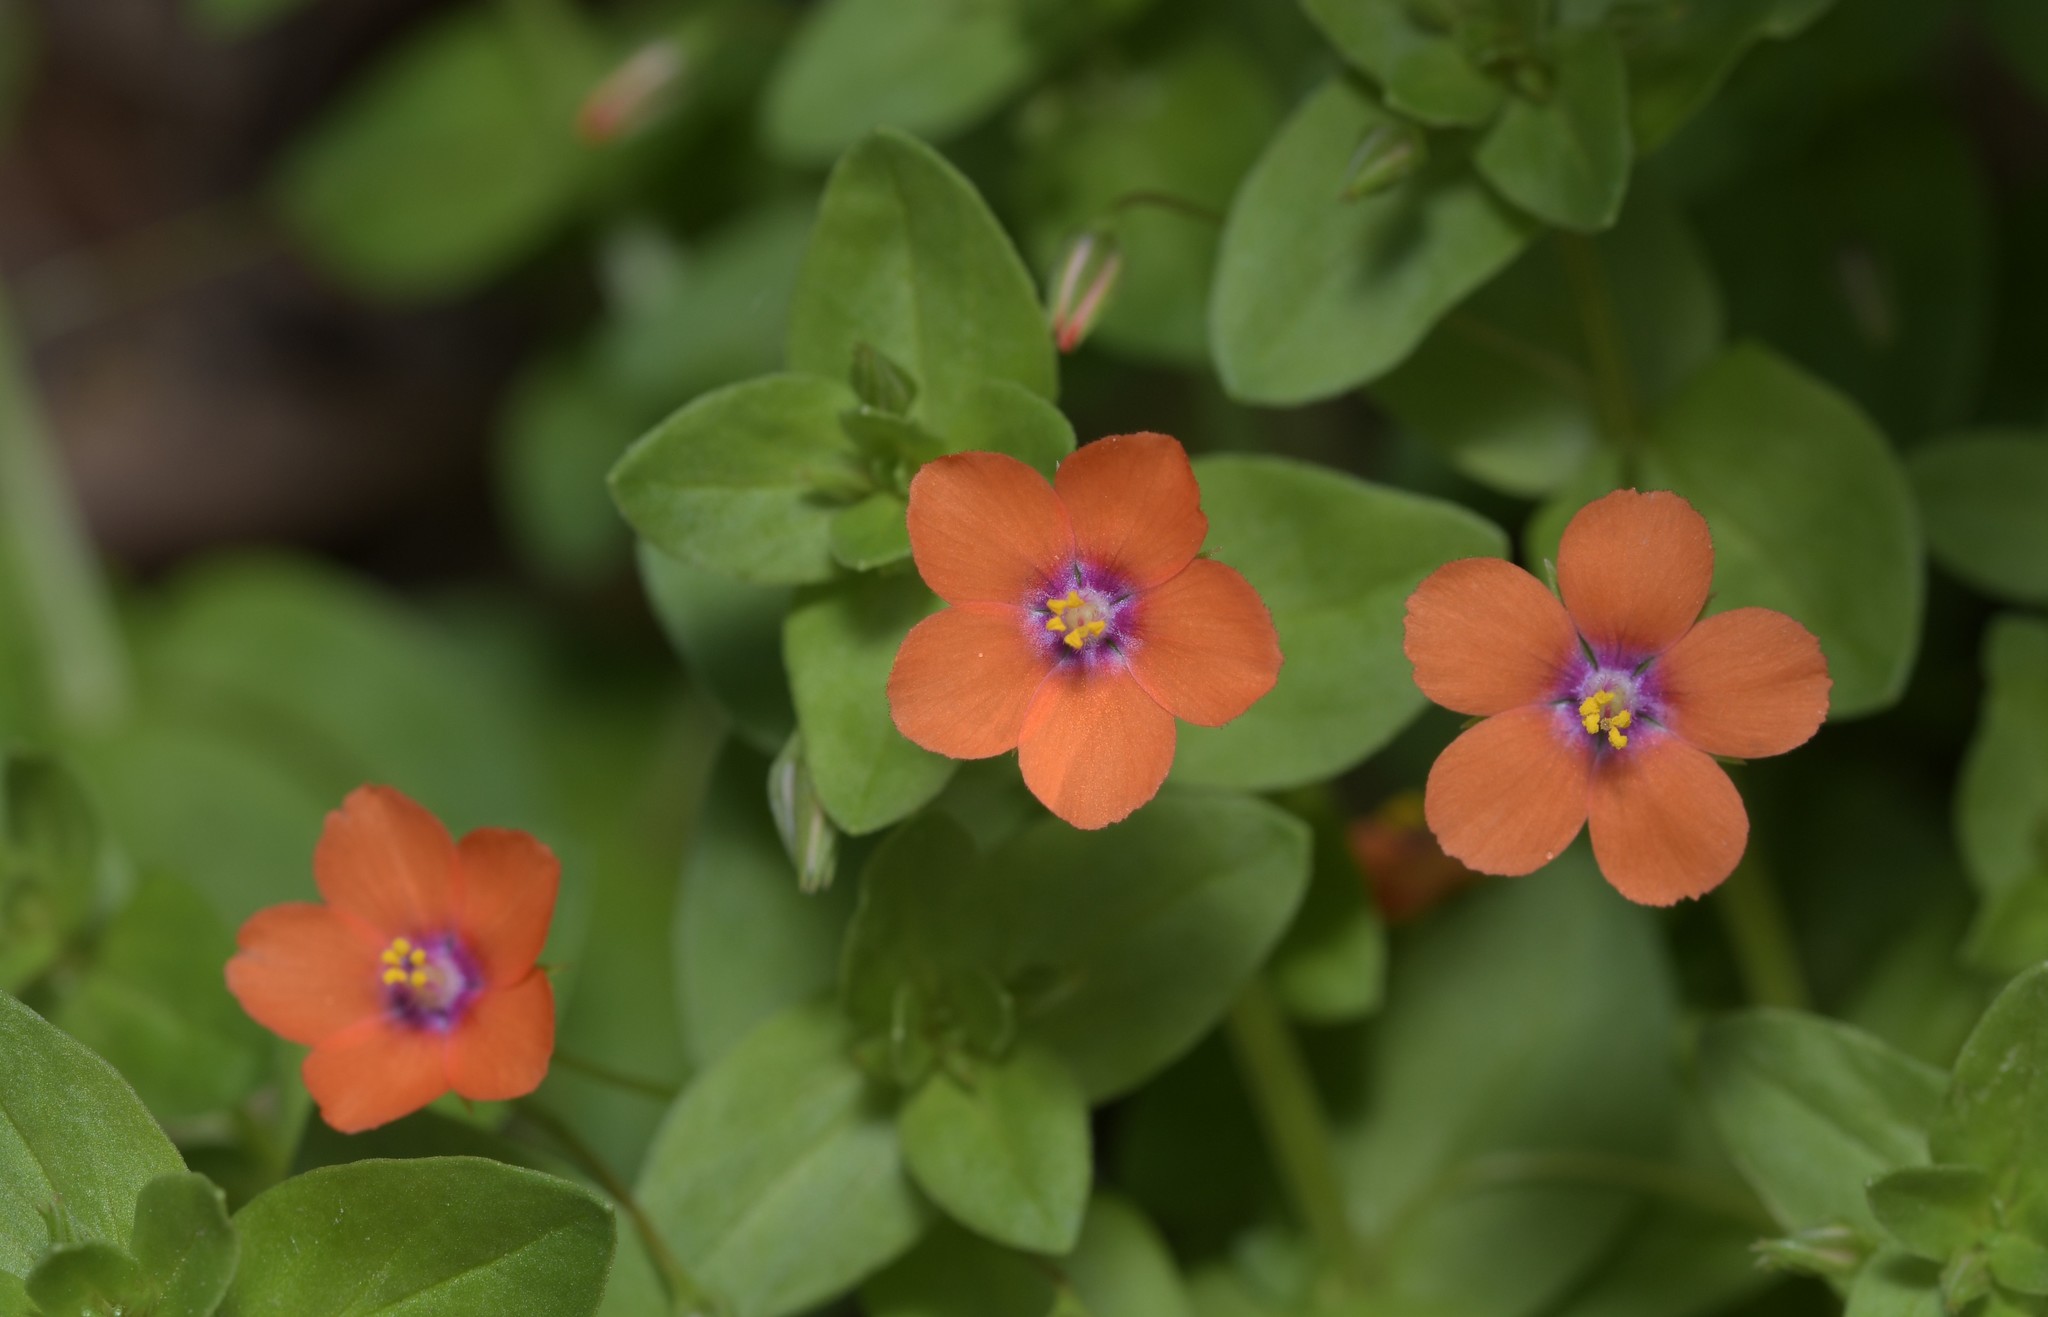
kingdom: Plantae
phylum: Tracheophyta
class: Magnoliopsida
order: Ericales
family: Primulaceae
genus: Lysimachia
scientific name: Lysimachia arvensis
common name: Scarlet pimpernel
